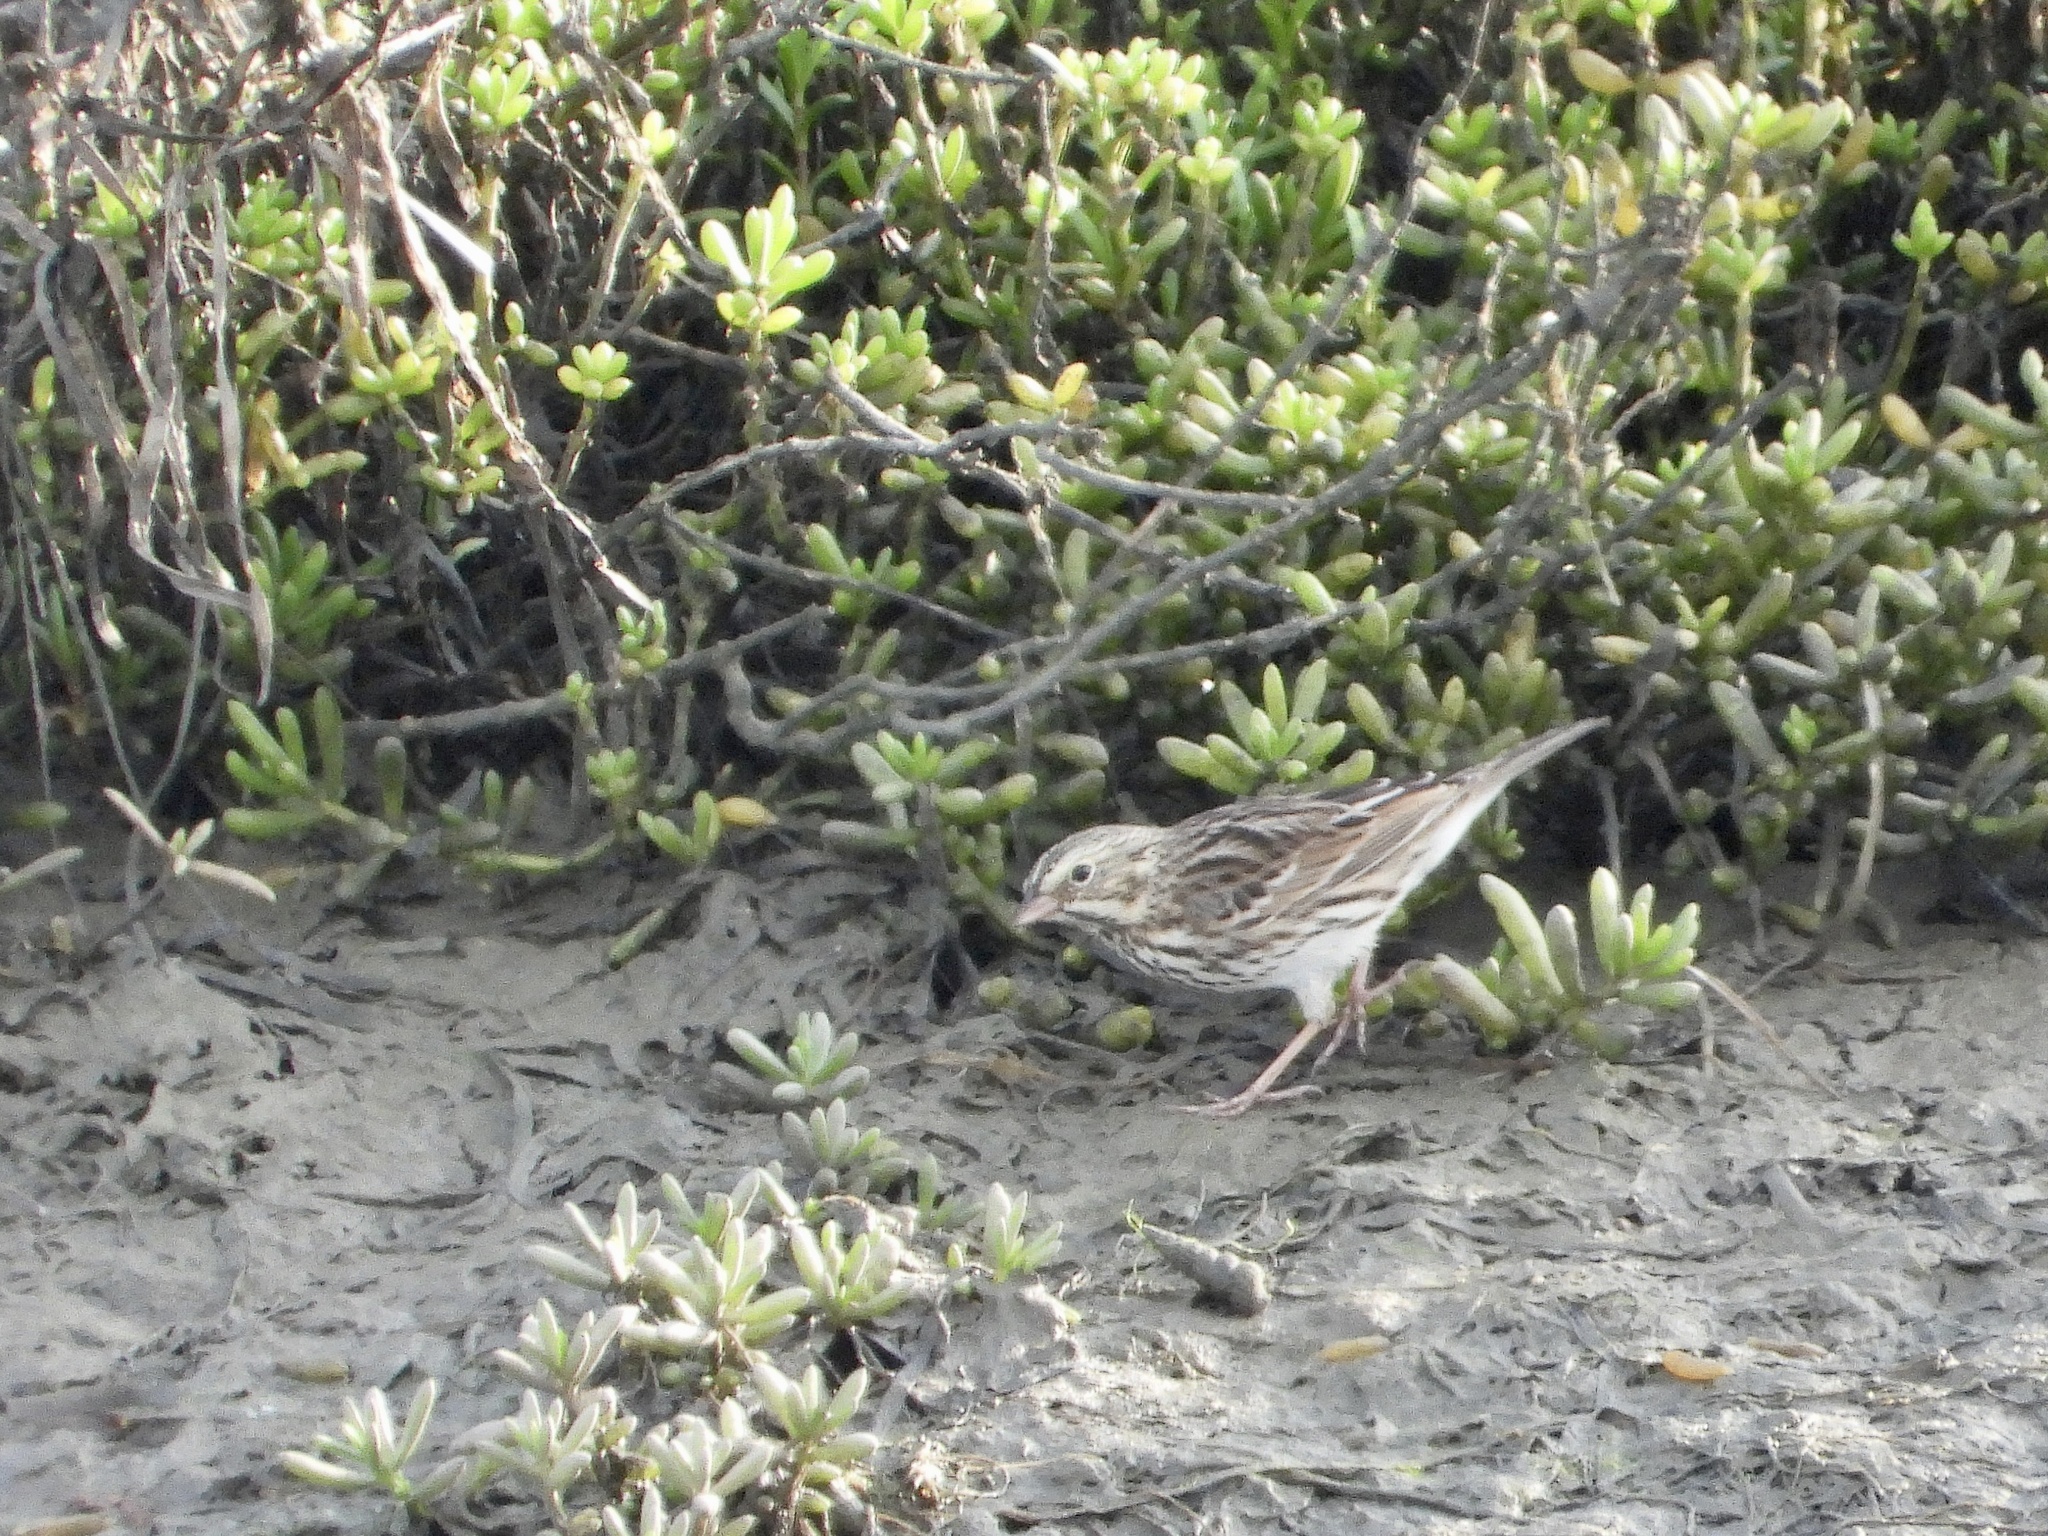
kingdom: Animalia
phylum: Chordata
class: Aves
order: Passeriformes
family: Passerellidae
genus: Passerculus
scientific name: Passerculus sandwichensis
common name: Savannah sparrow
